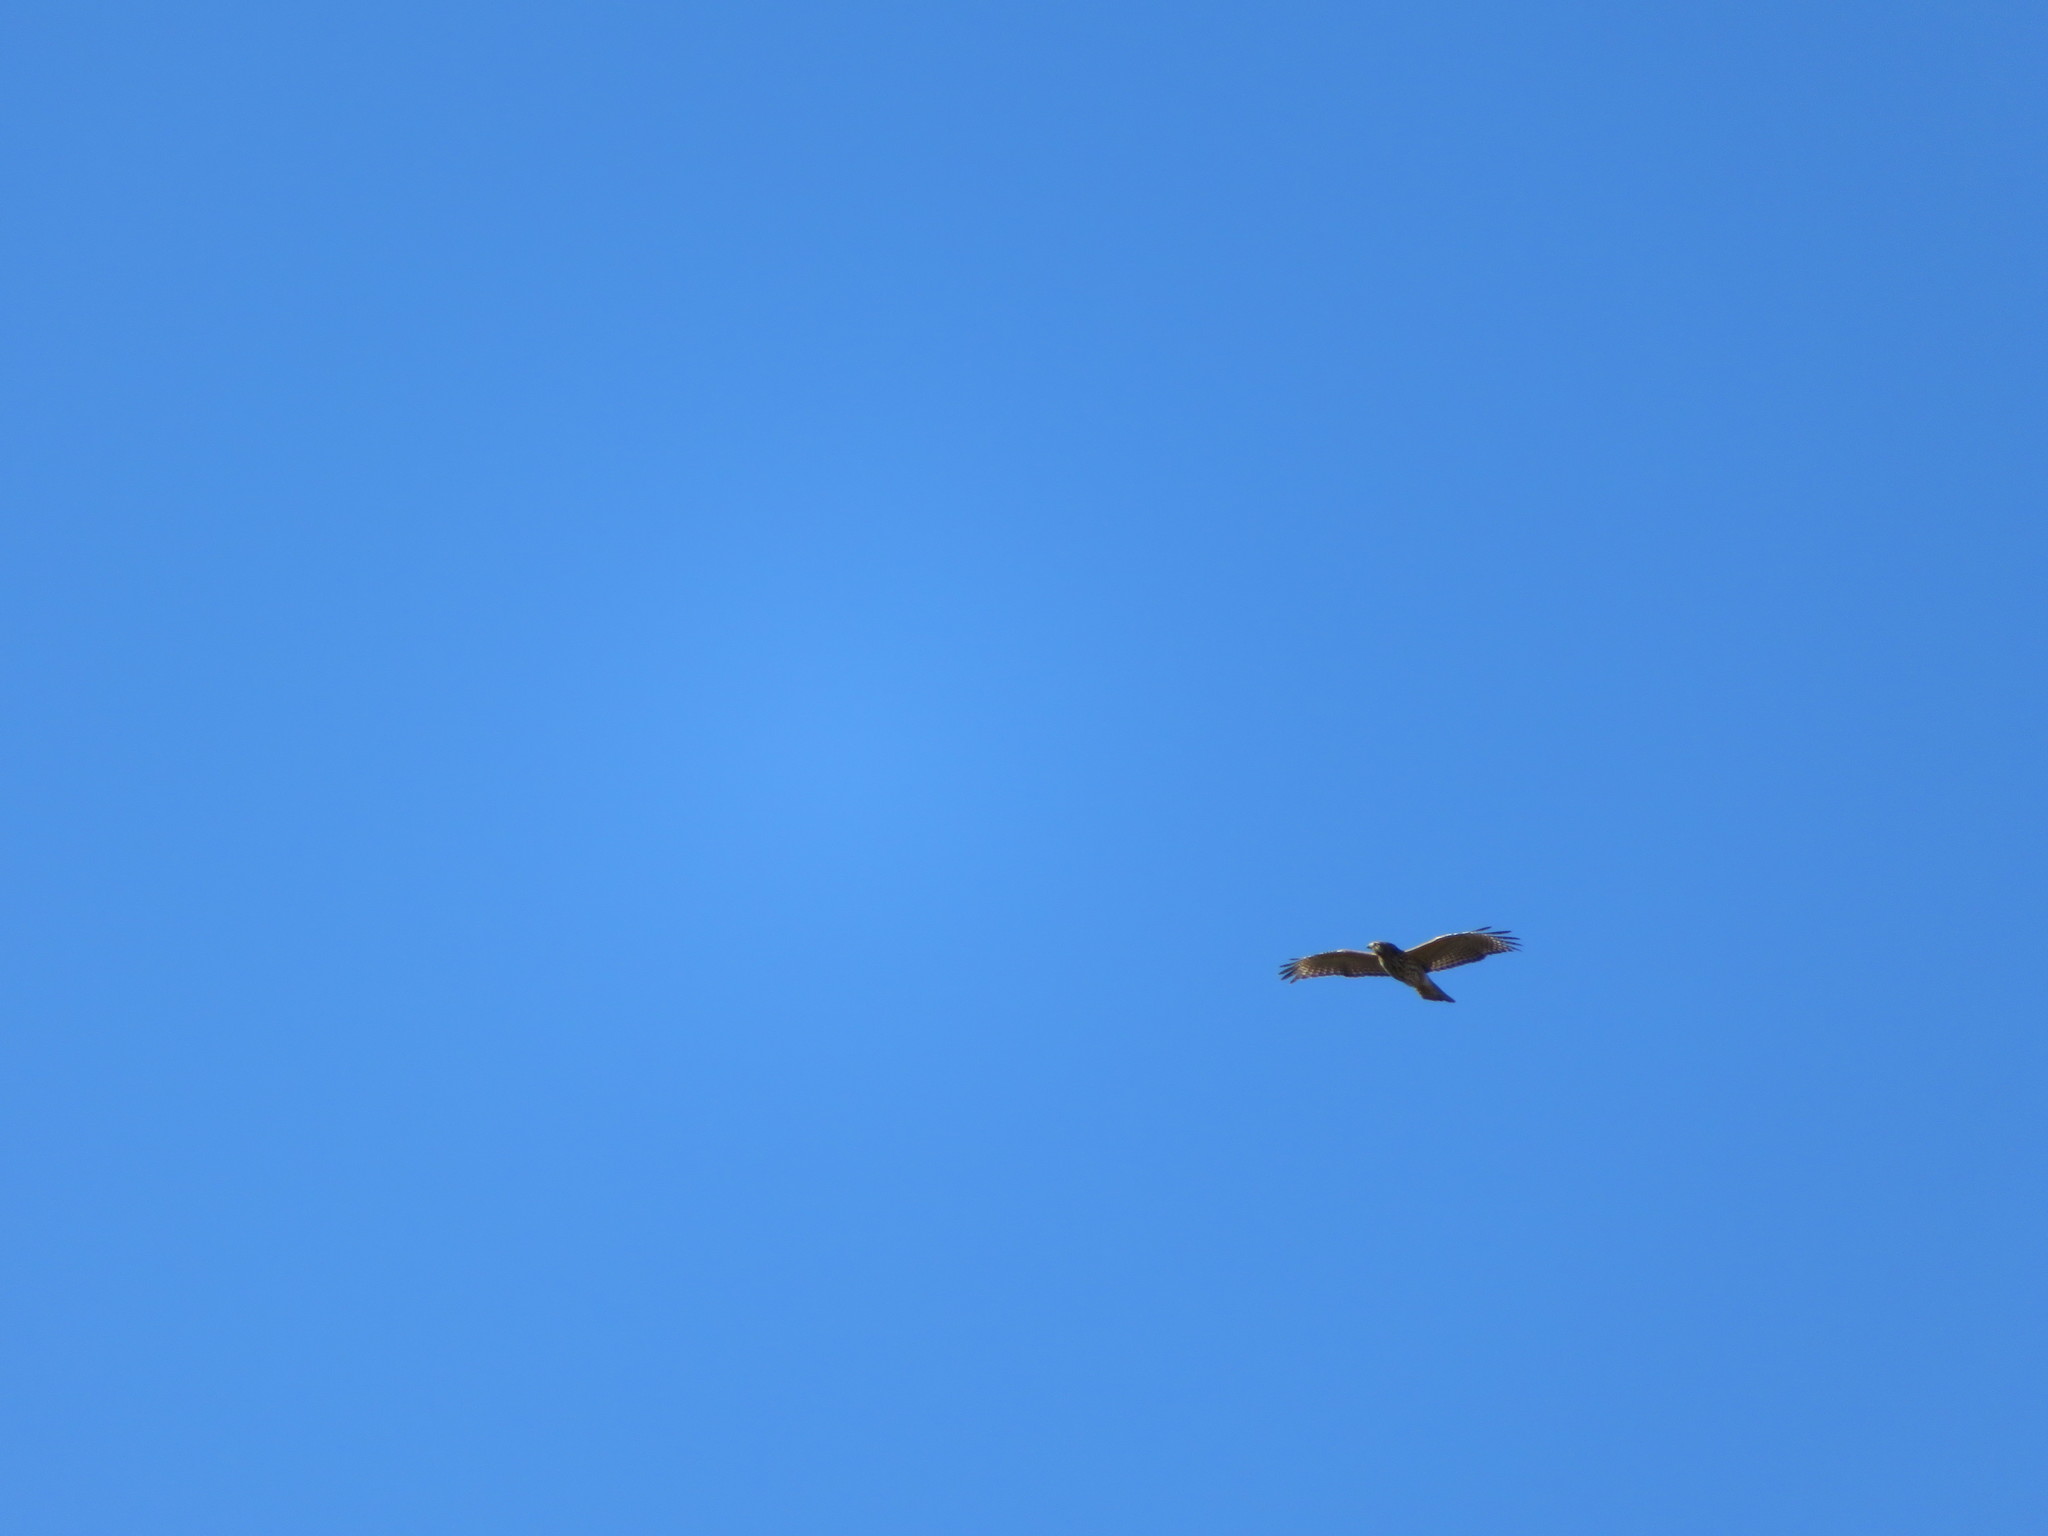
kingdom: Animalia
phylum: Chordata
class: Aves
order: Accipitriformes
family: Accipitridae
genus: Buteo
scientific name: Buteo lineatus
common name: Red-shouldered hawk
